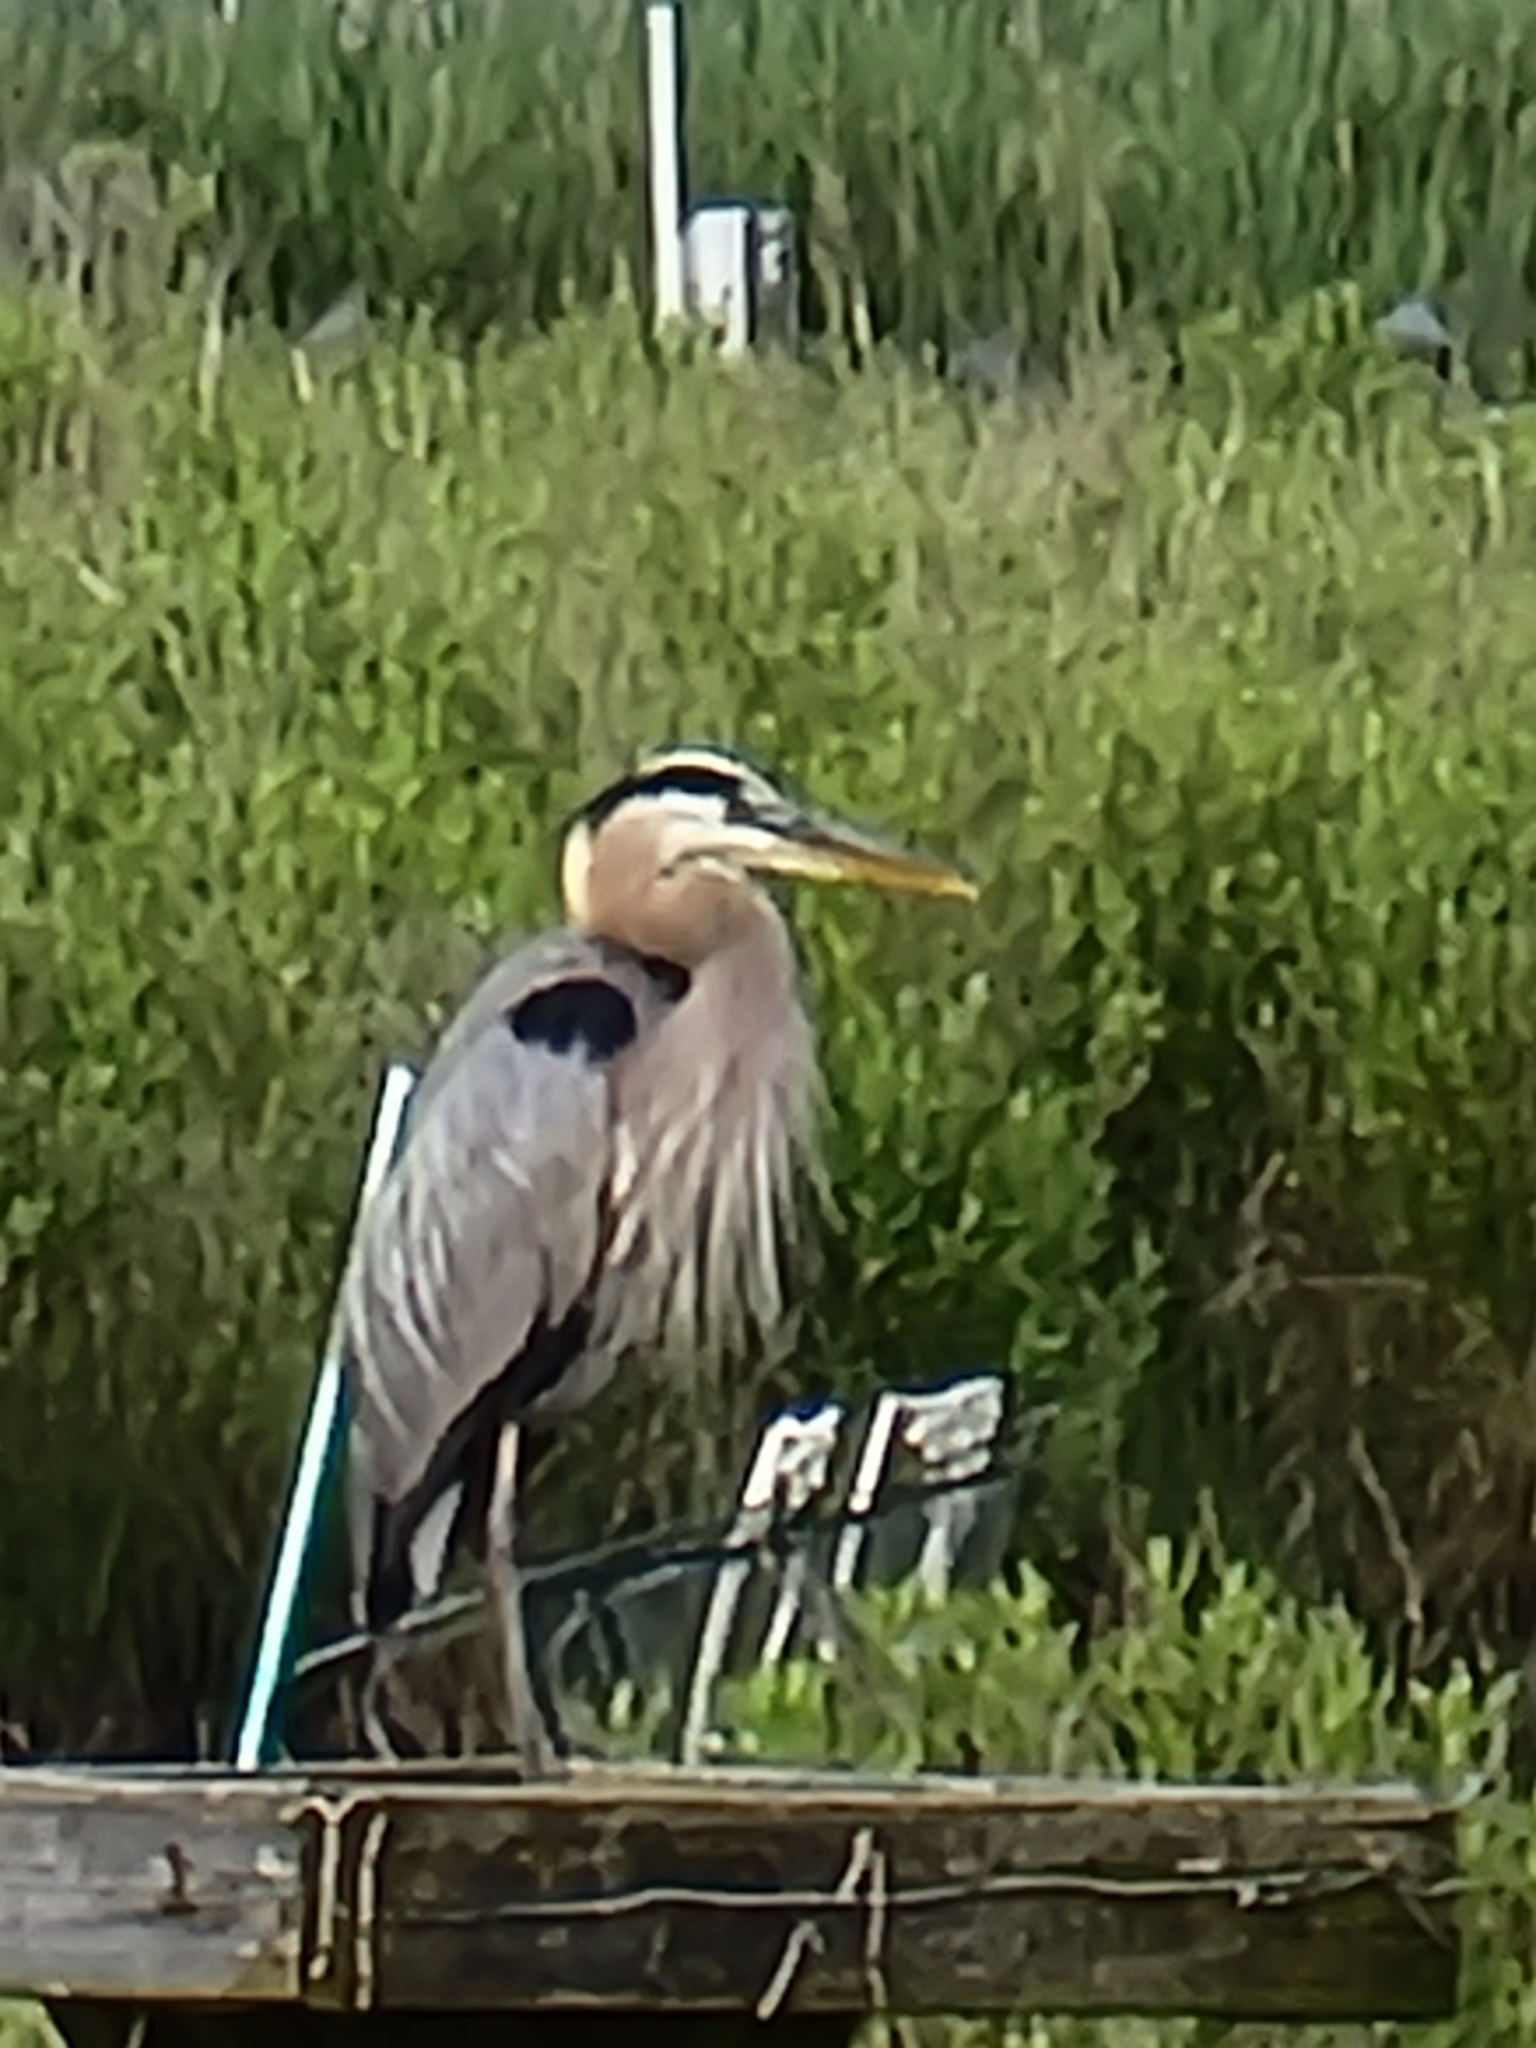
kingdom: Animalia
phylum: Chordata
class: Aves
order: Pelecaniformes
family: Ardeidae
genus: Ardea
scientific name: Ardea herodias
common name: Great blue heron
